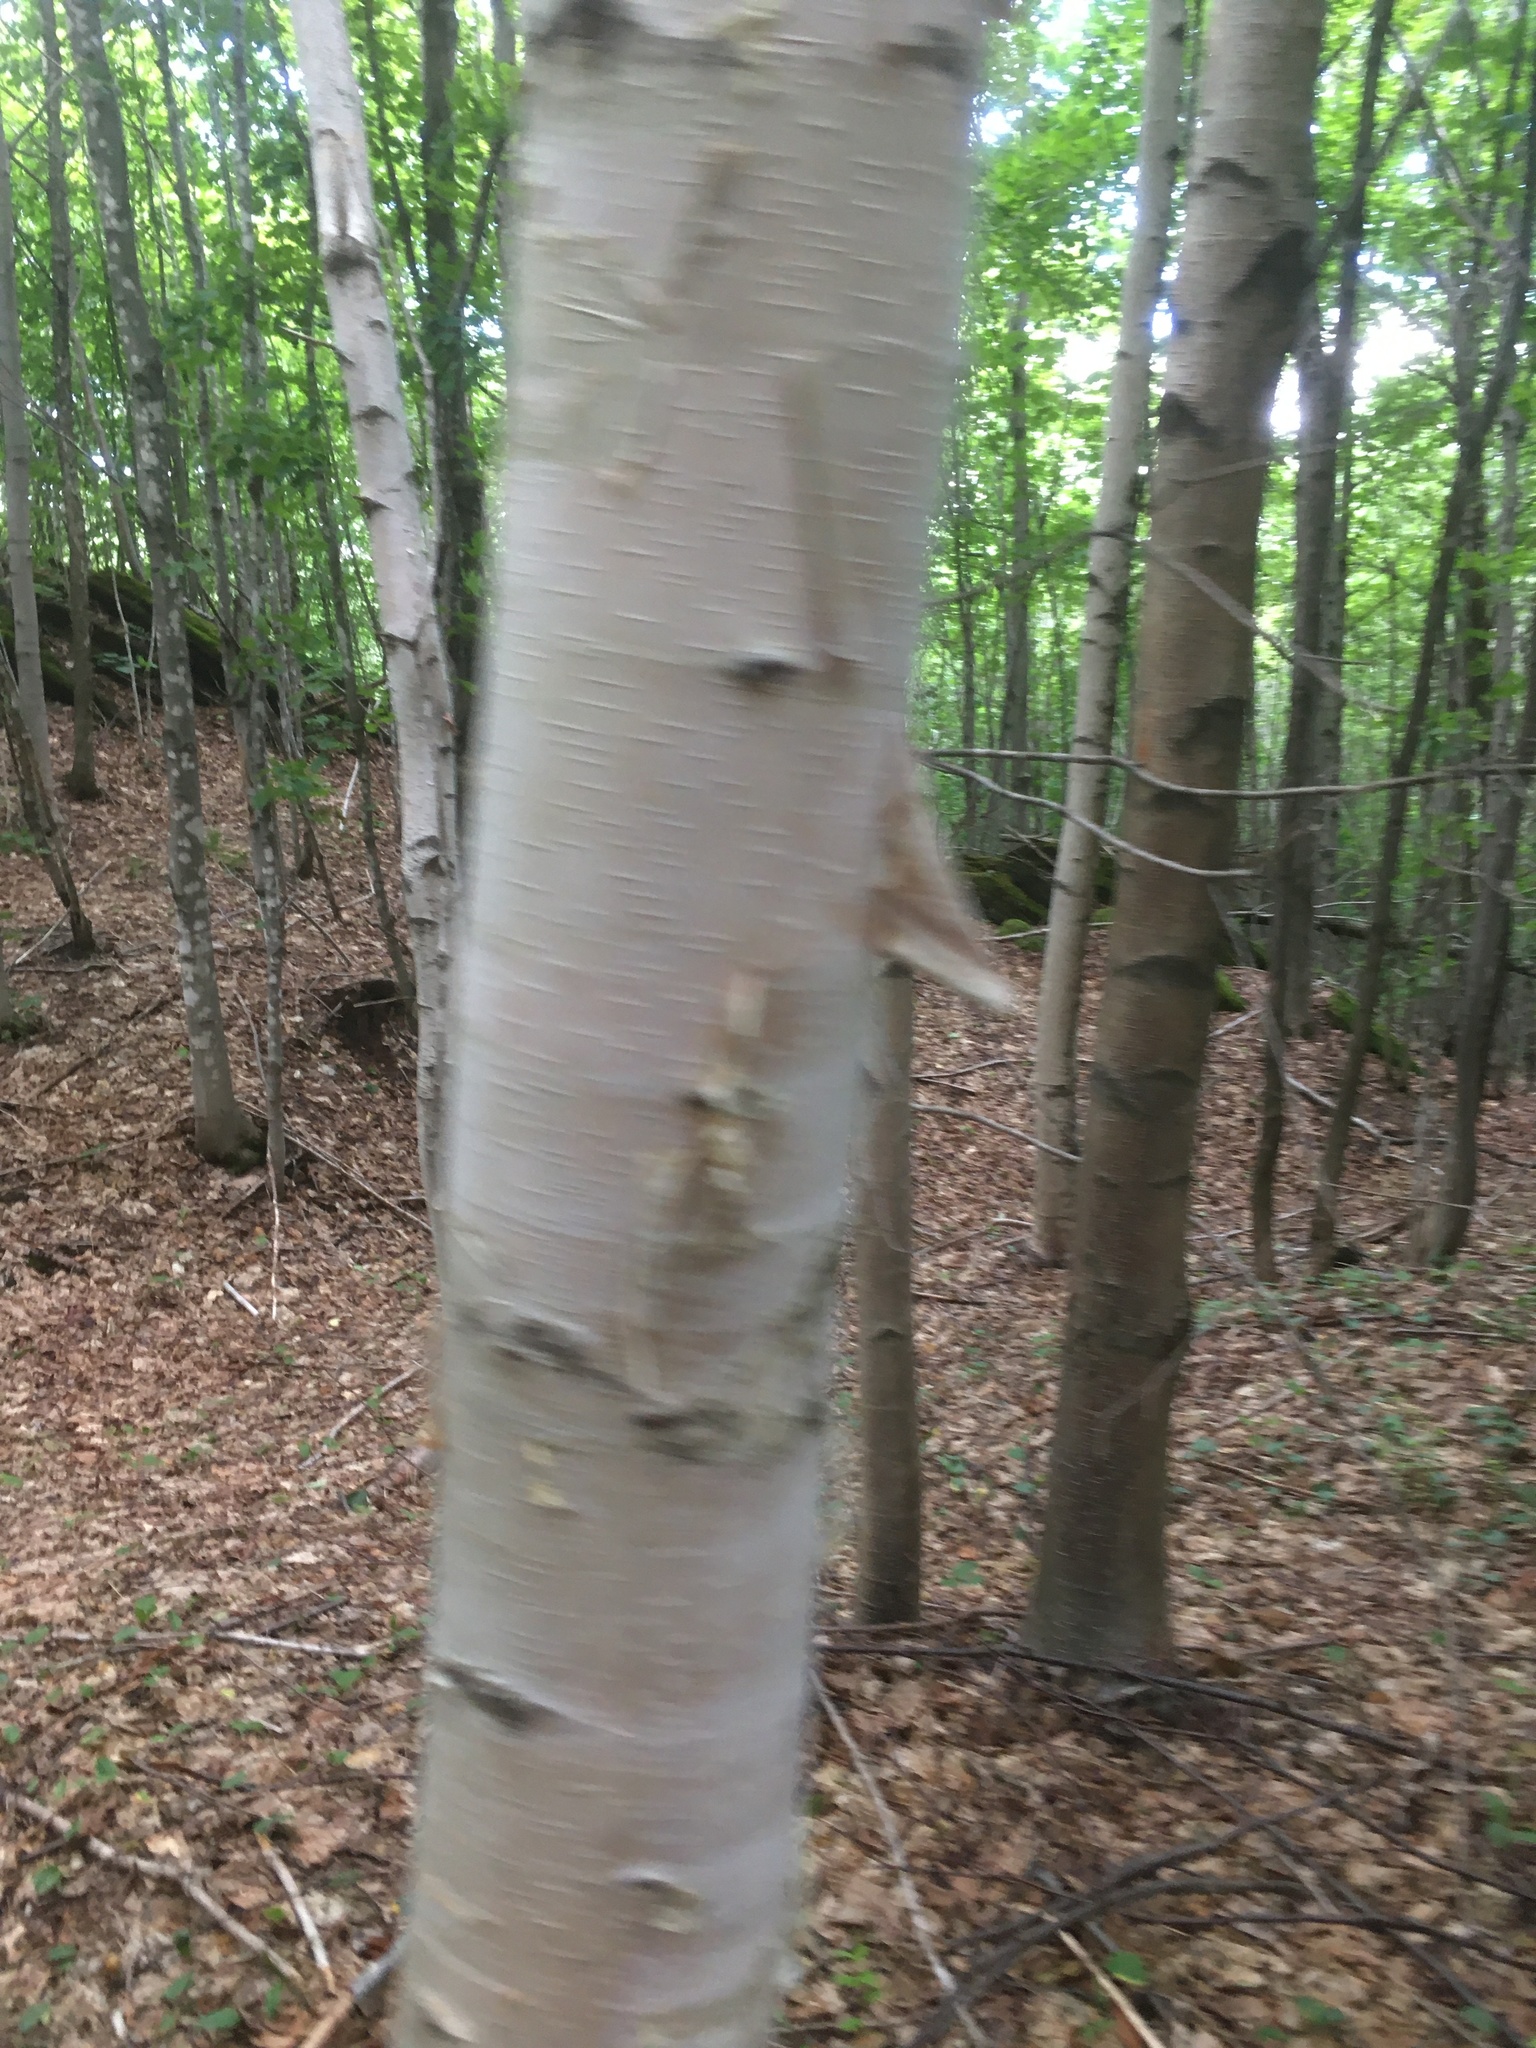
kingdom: Plantae
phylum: Tracheophyta
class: Magnoliopsida
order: Fagales
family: Betulaceae
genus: Betula
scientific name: Betula papyrifera
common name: Paper birch
